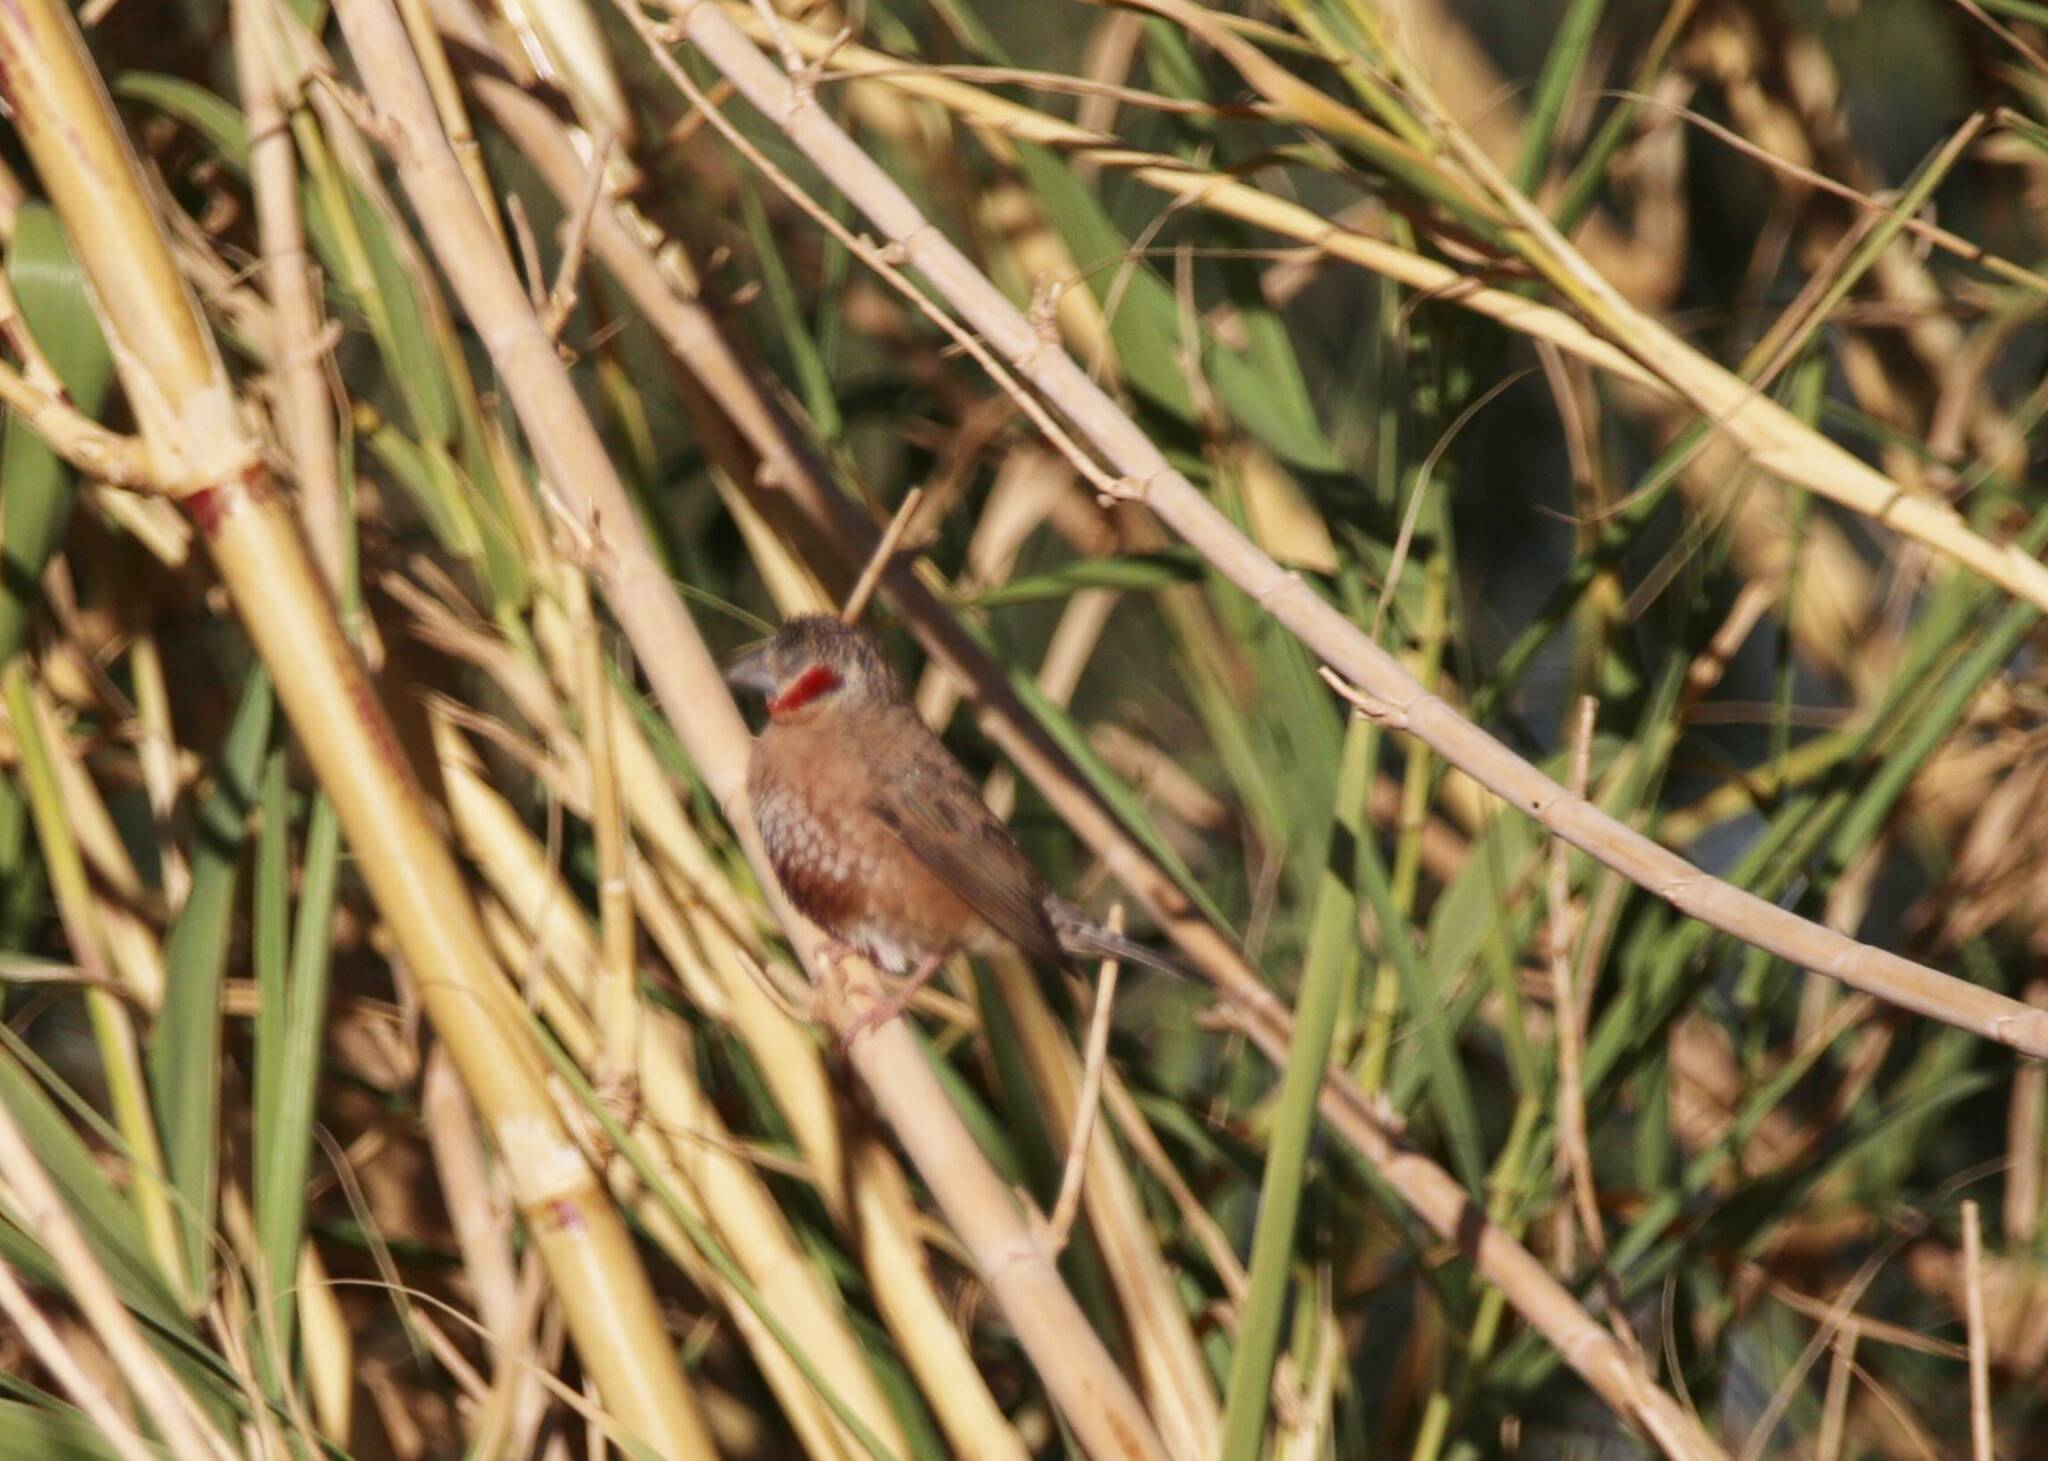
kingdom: Animalia
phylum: Chordata
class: Aves
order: Passeriformes
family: Estrildidae
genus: Amadina
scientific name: Amadina fasciata
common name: Cut-throat finch
